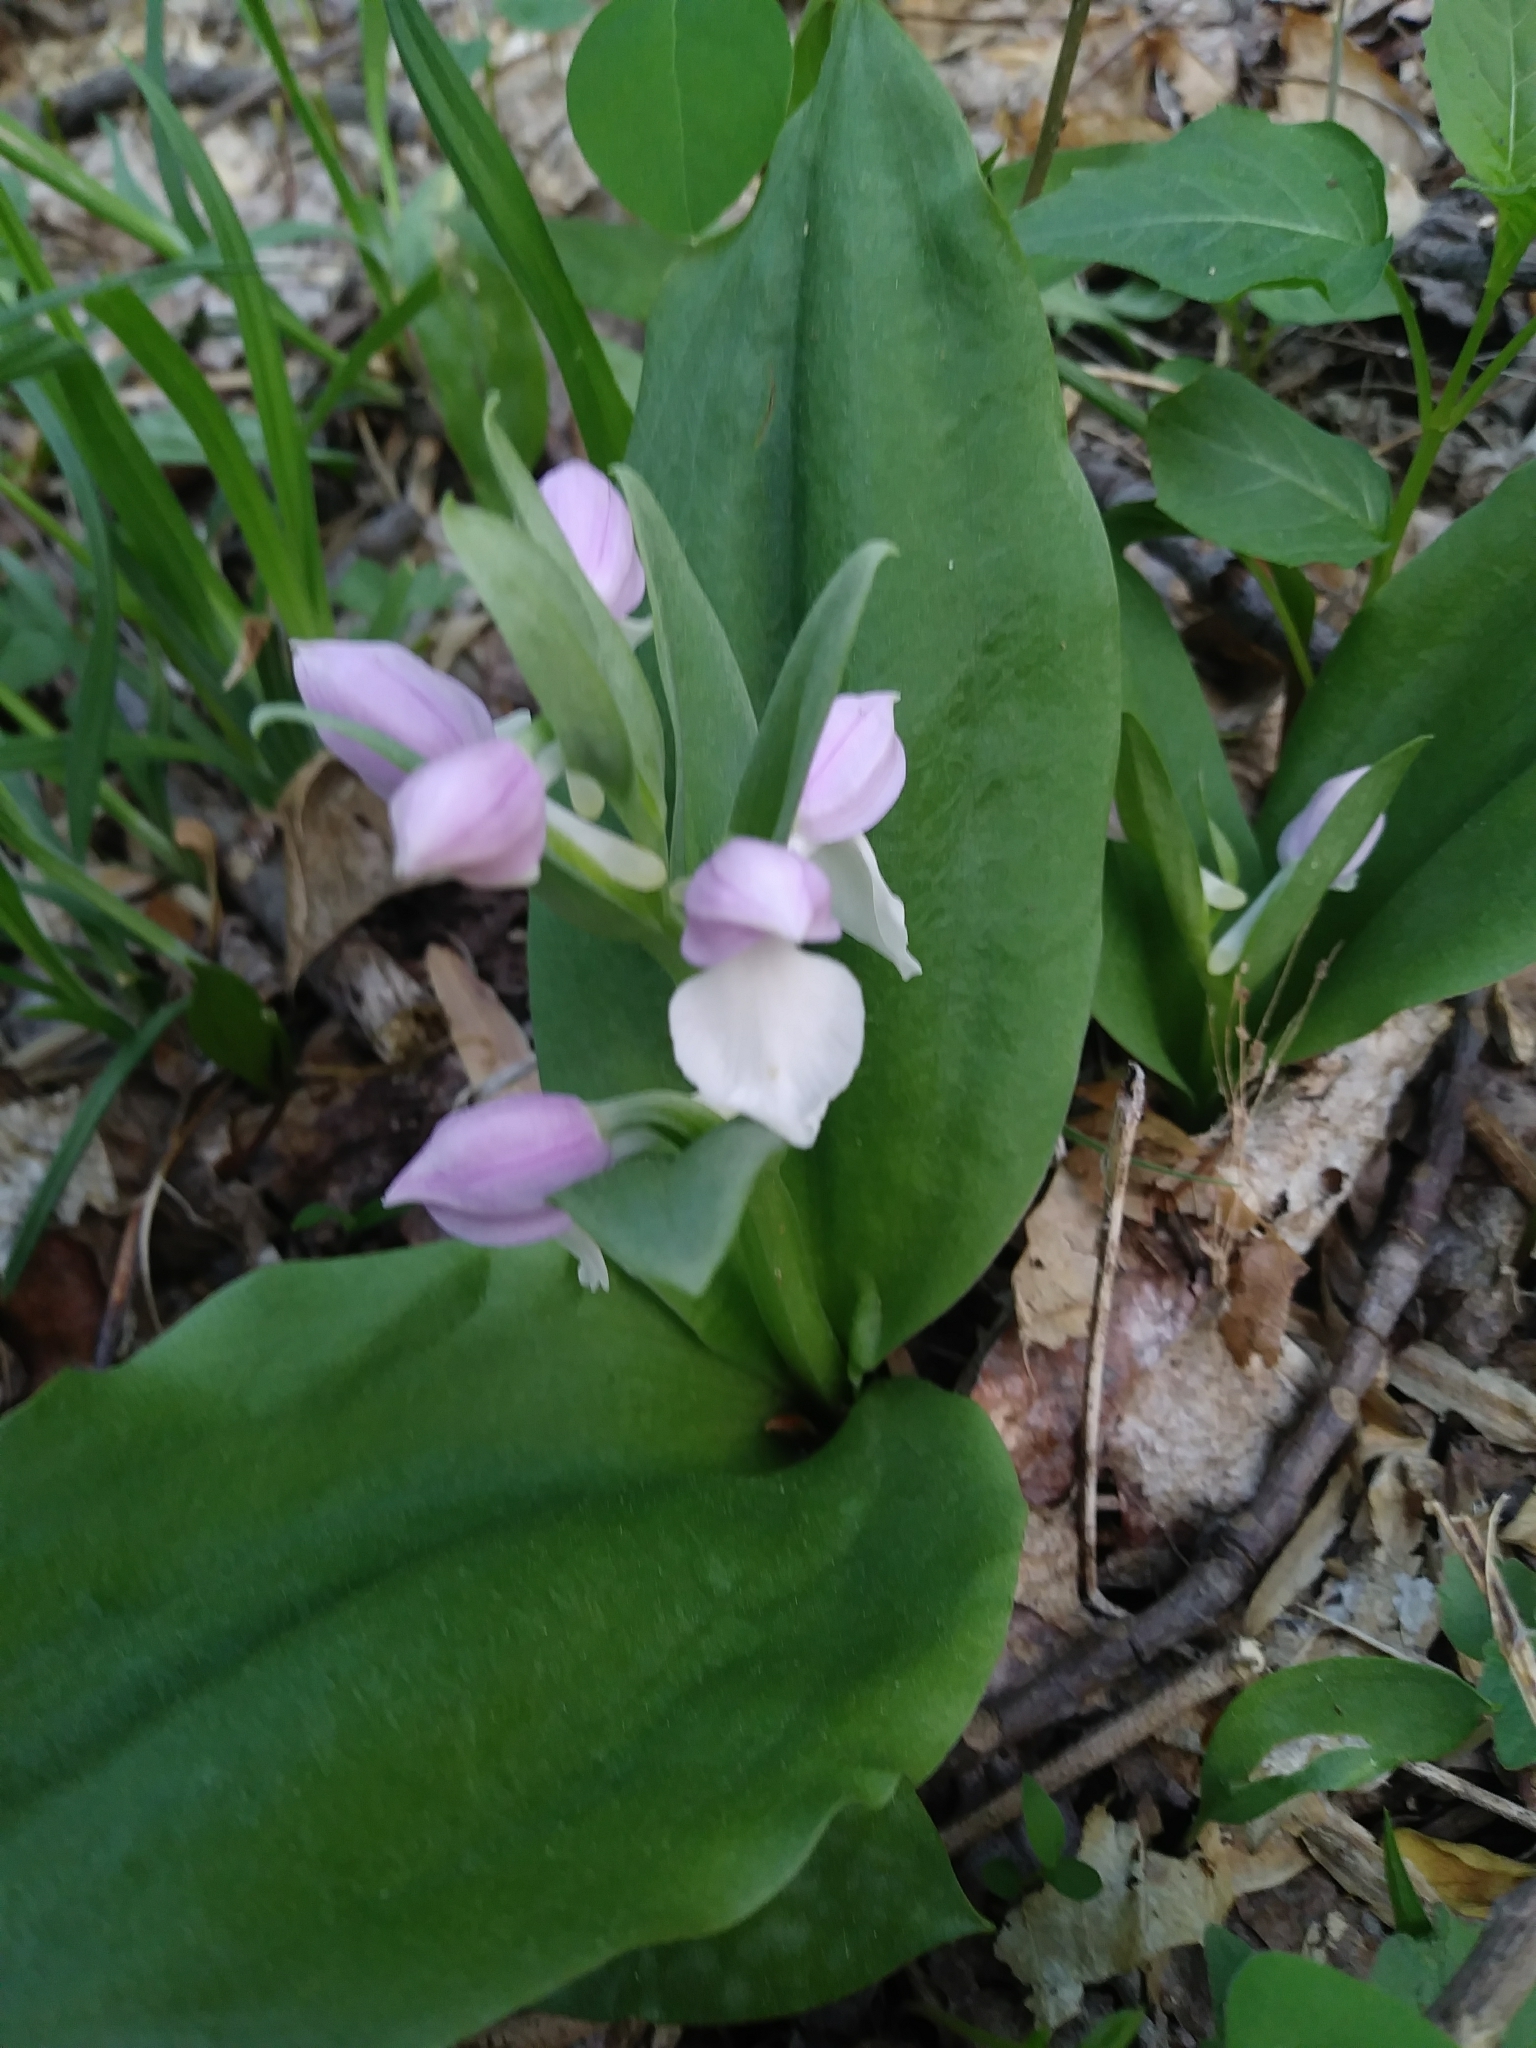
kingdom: Plantae
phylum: Tracheophyta
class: Liliopsida
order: Asparagales
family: Orchidaceae
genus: Galearis
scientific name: Galearis spectabilis
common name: Purple-hooded orchis
